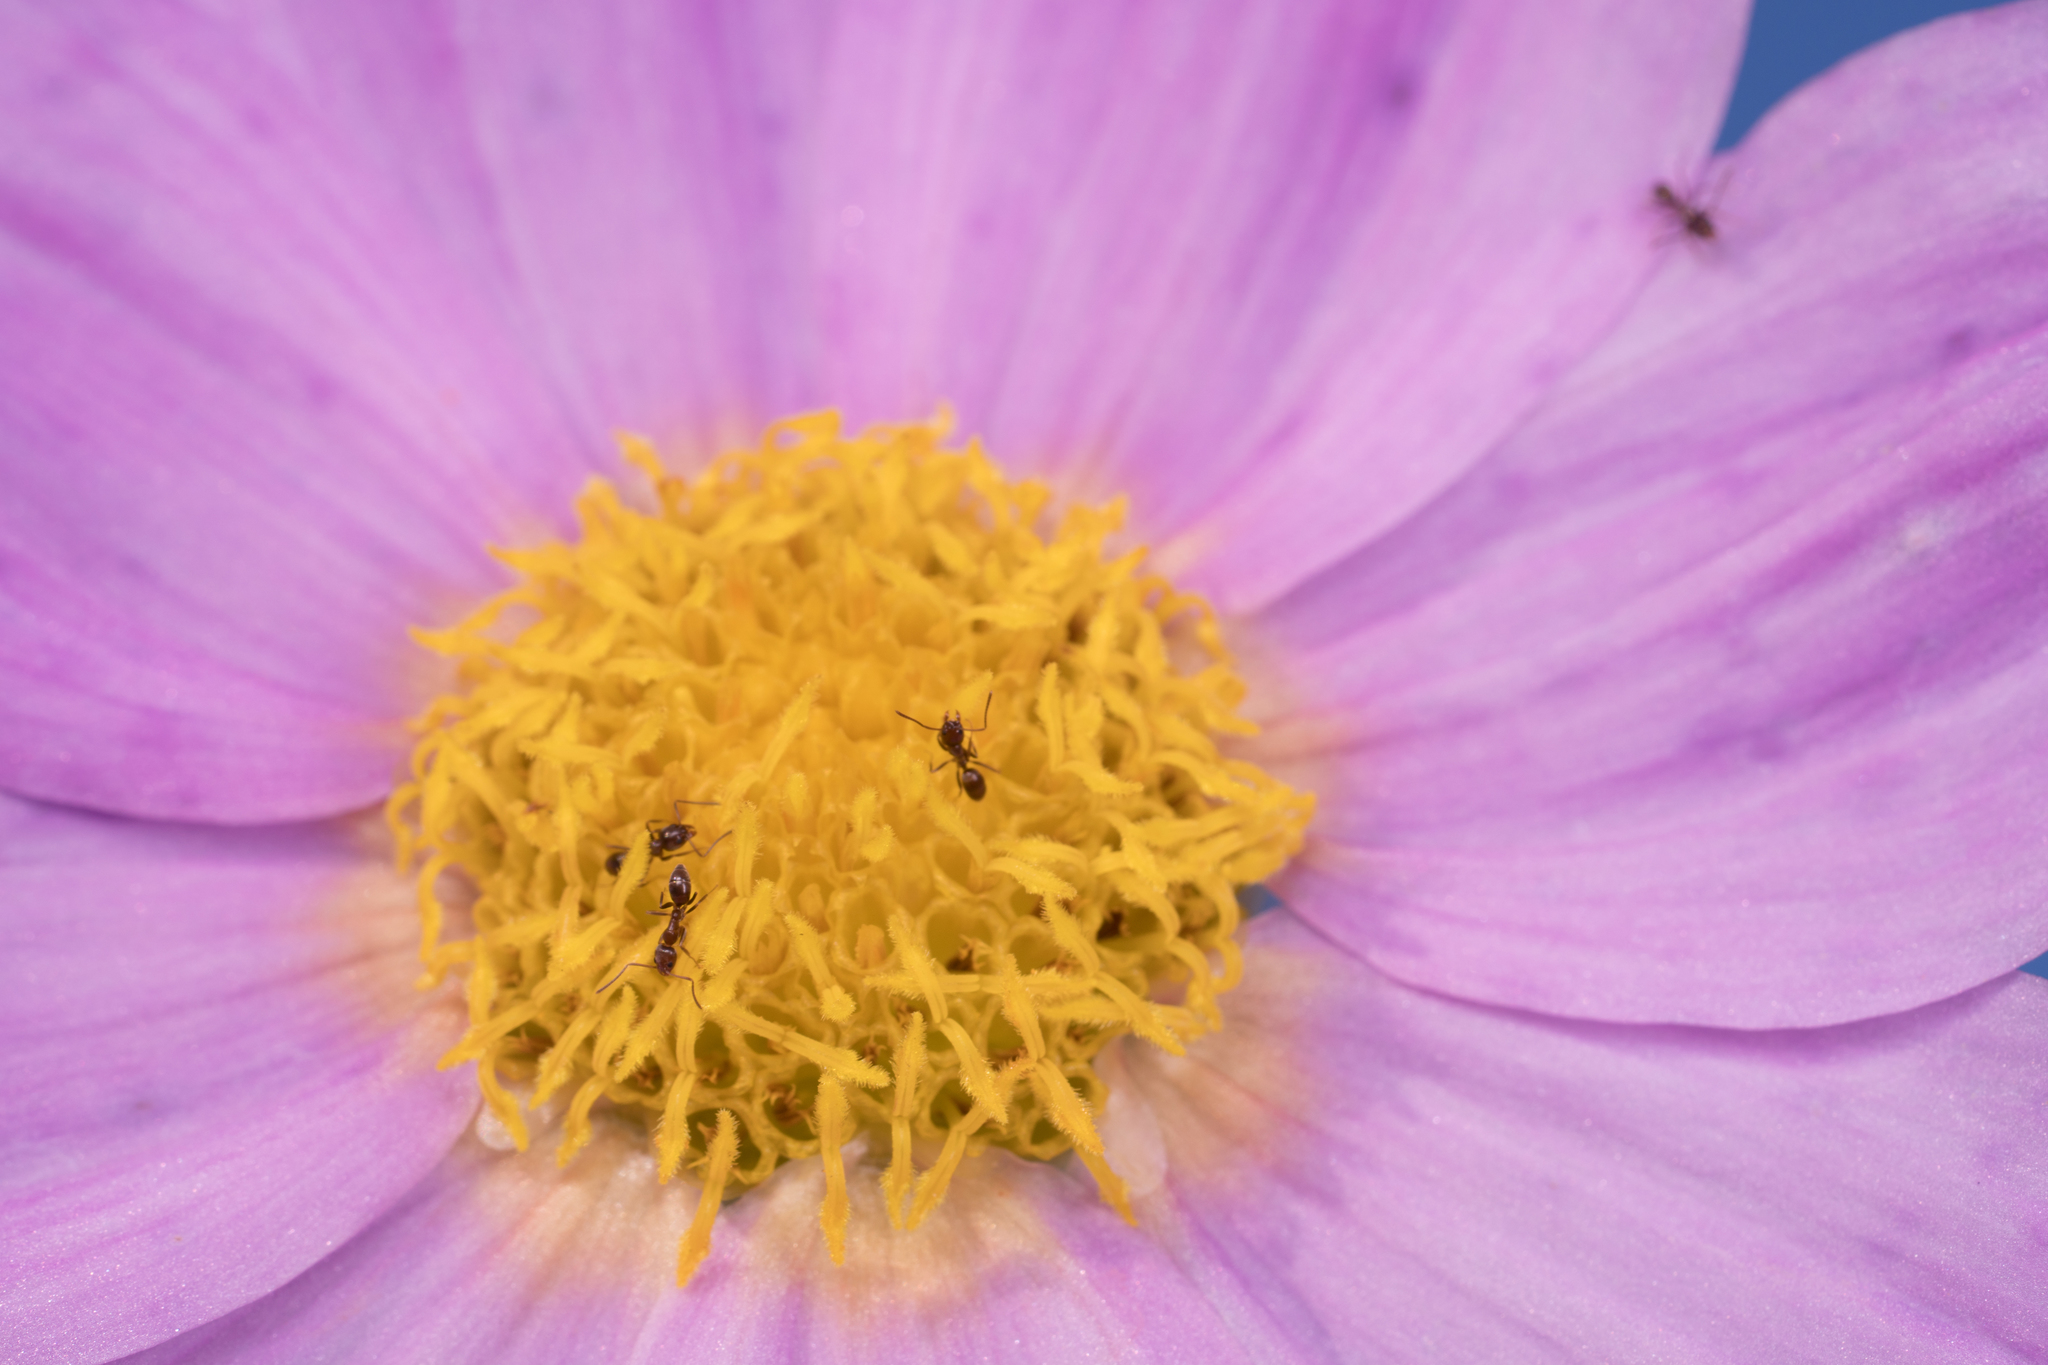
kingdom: Animalia
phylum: Arthropoda
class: Insecta
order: Hymenoptera
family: Formicidae
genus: Linepithema
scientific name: Linepithema humile
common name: Argentine ant
